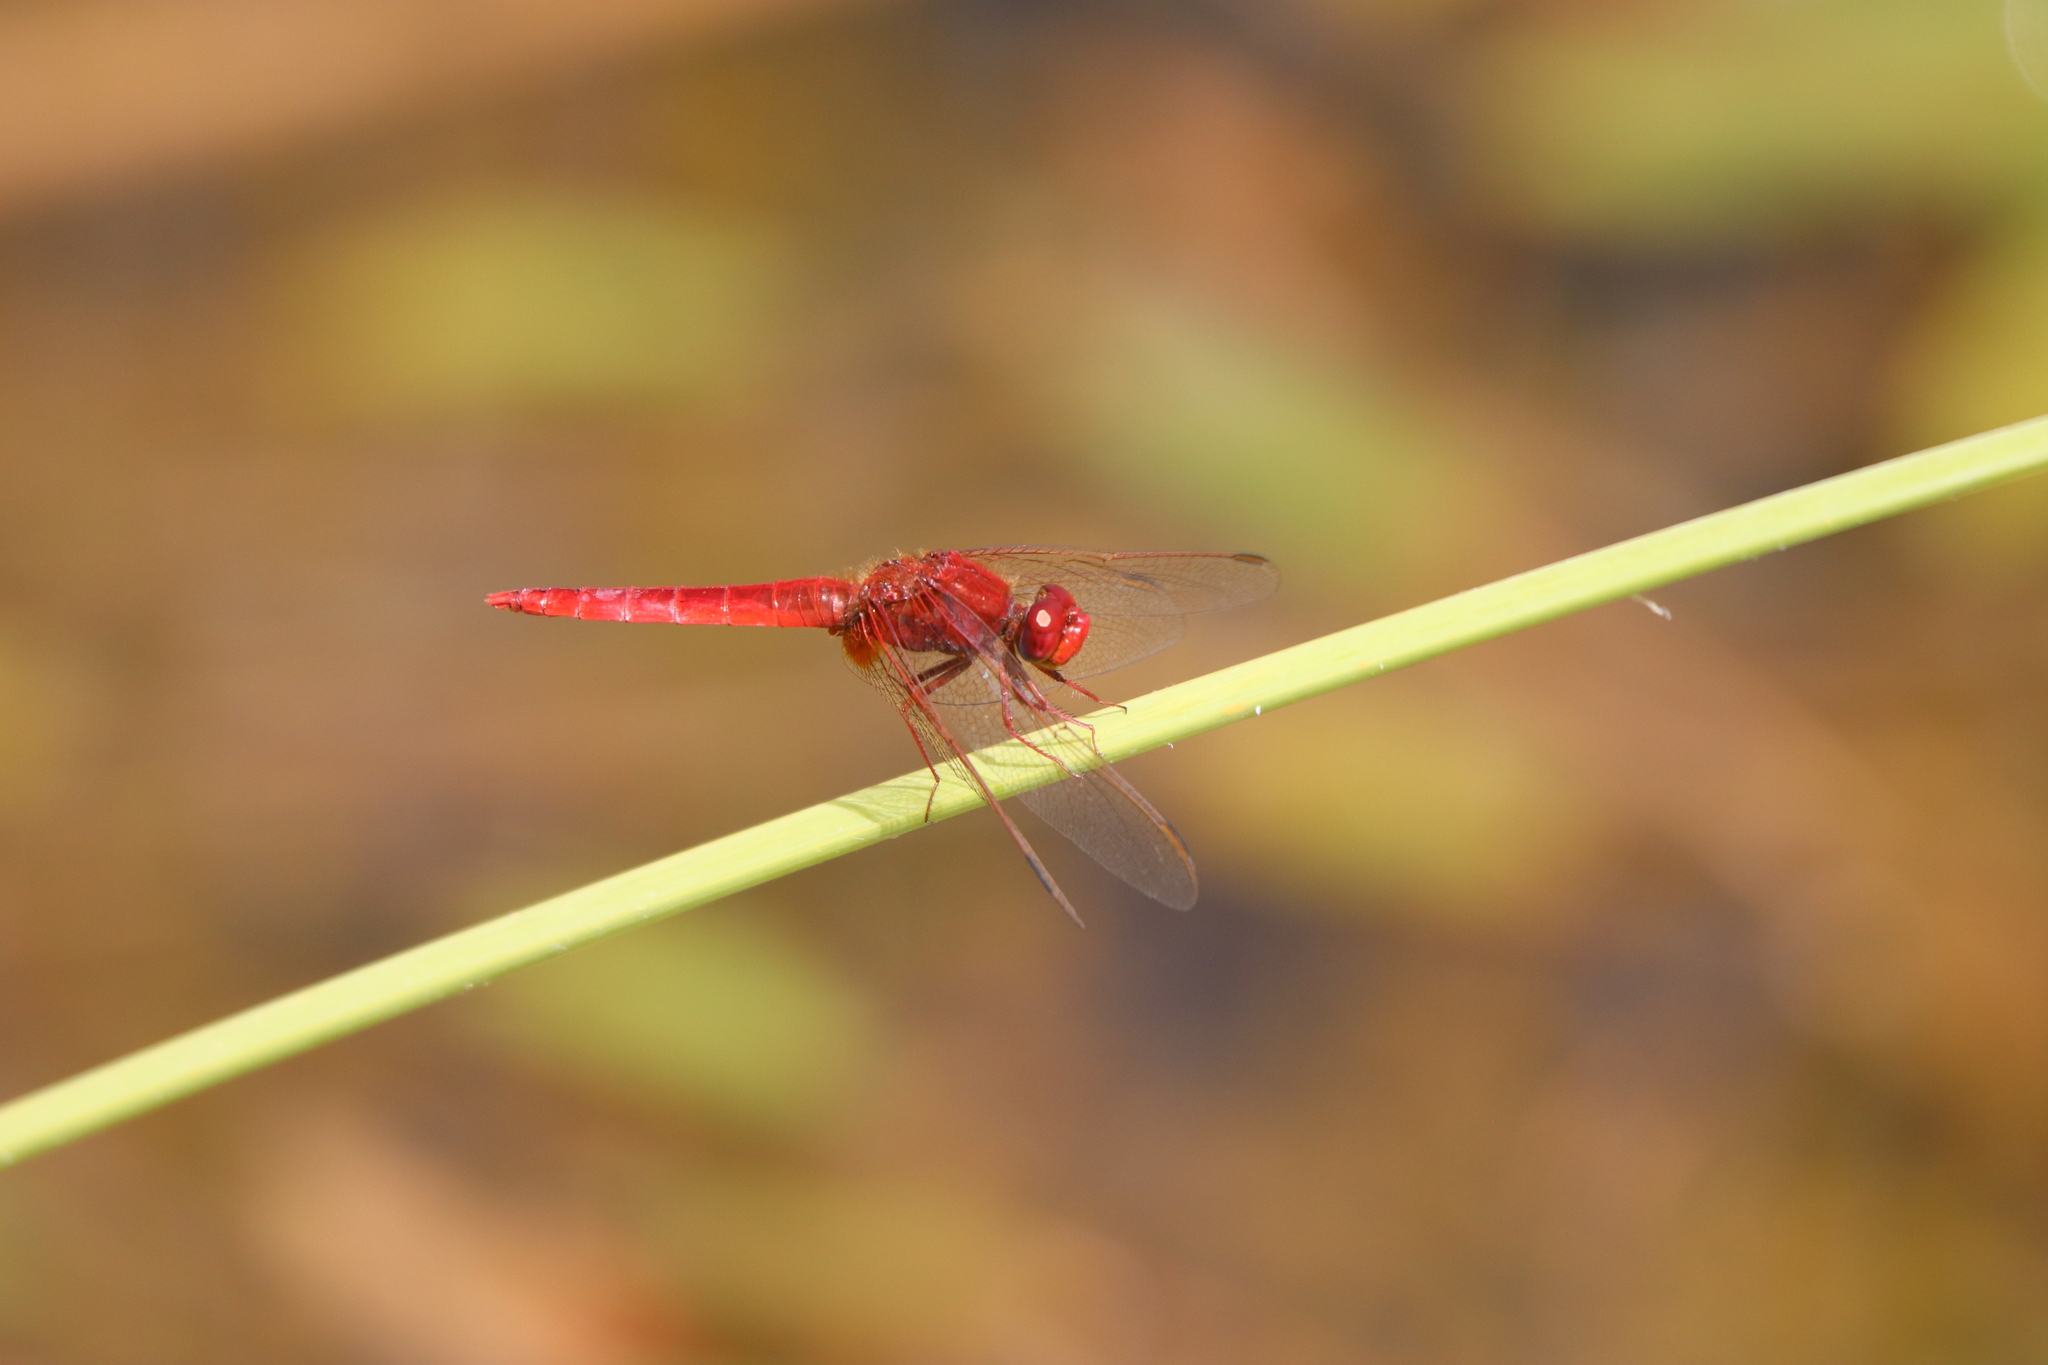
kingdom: Animalia
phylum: Arthropoda
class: Insecta
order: Odonata
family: Libellulidae
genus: Crocothemis
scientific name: Crocothemis erythraea
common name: Scarlet dragonfly
